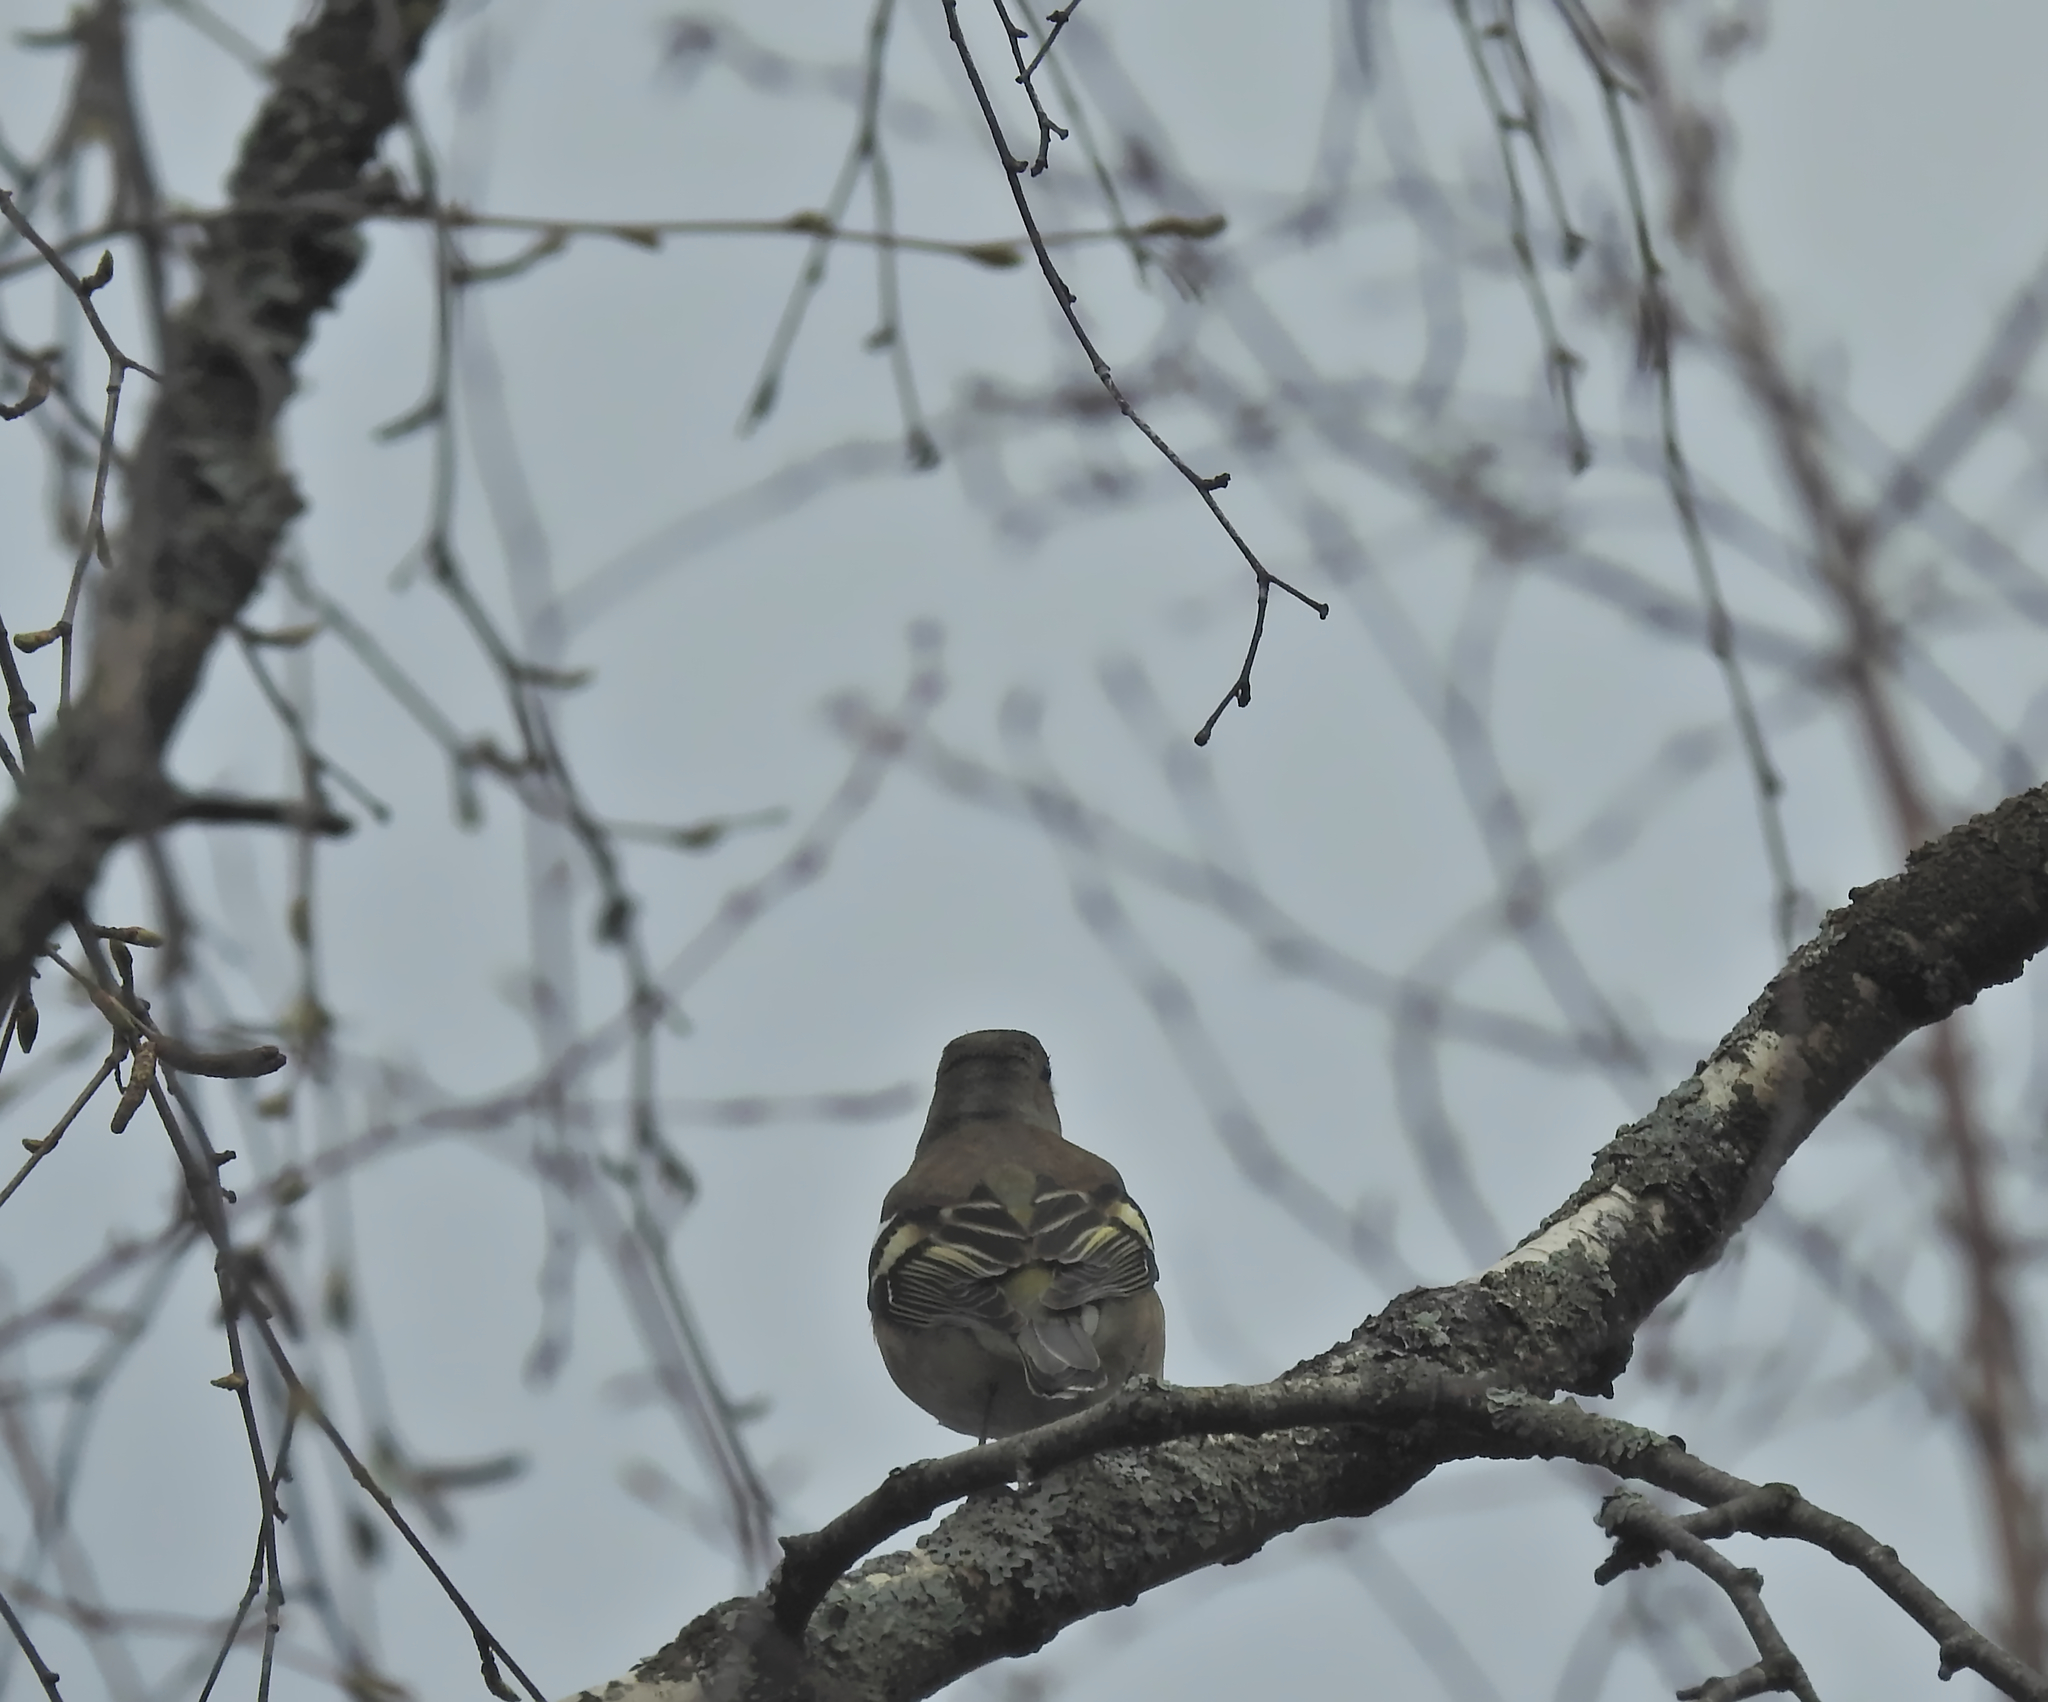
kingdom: Animalia
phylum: Chordata
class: Aves
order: Passeriformes
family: Fringillidae
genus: Fringilla
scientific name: Fringilla coelebs
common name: Common chaffinch
